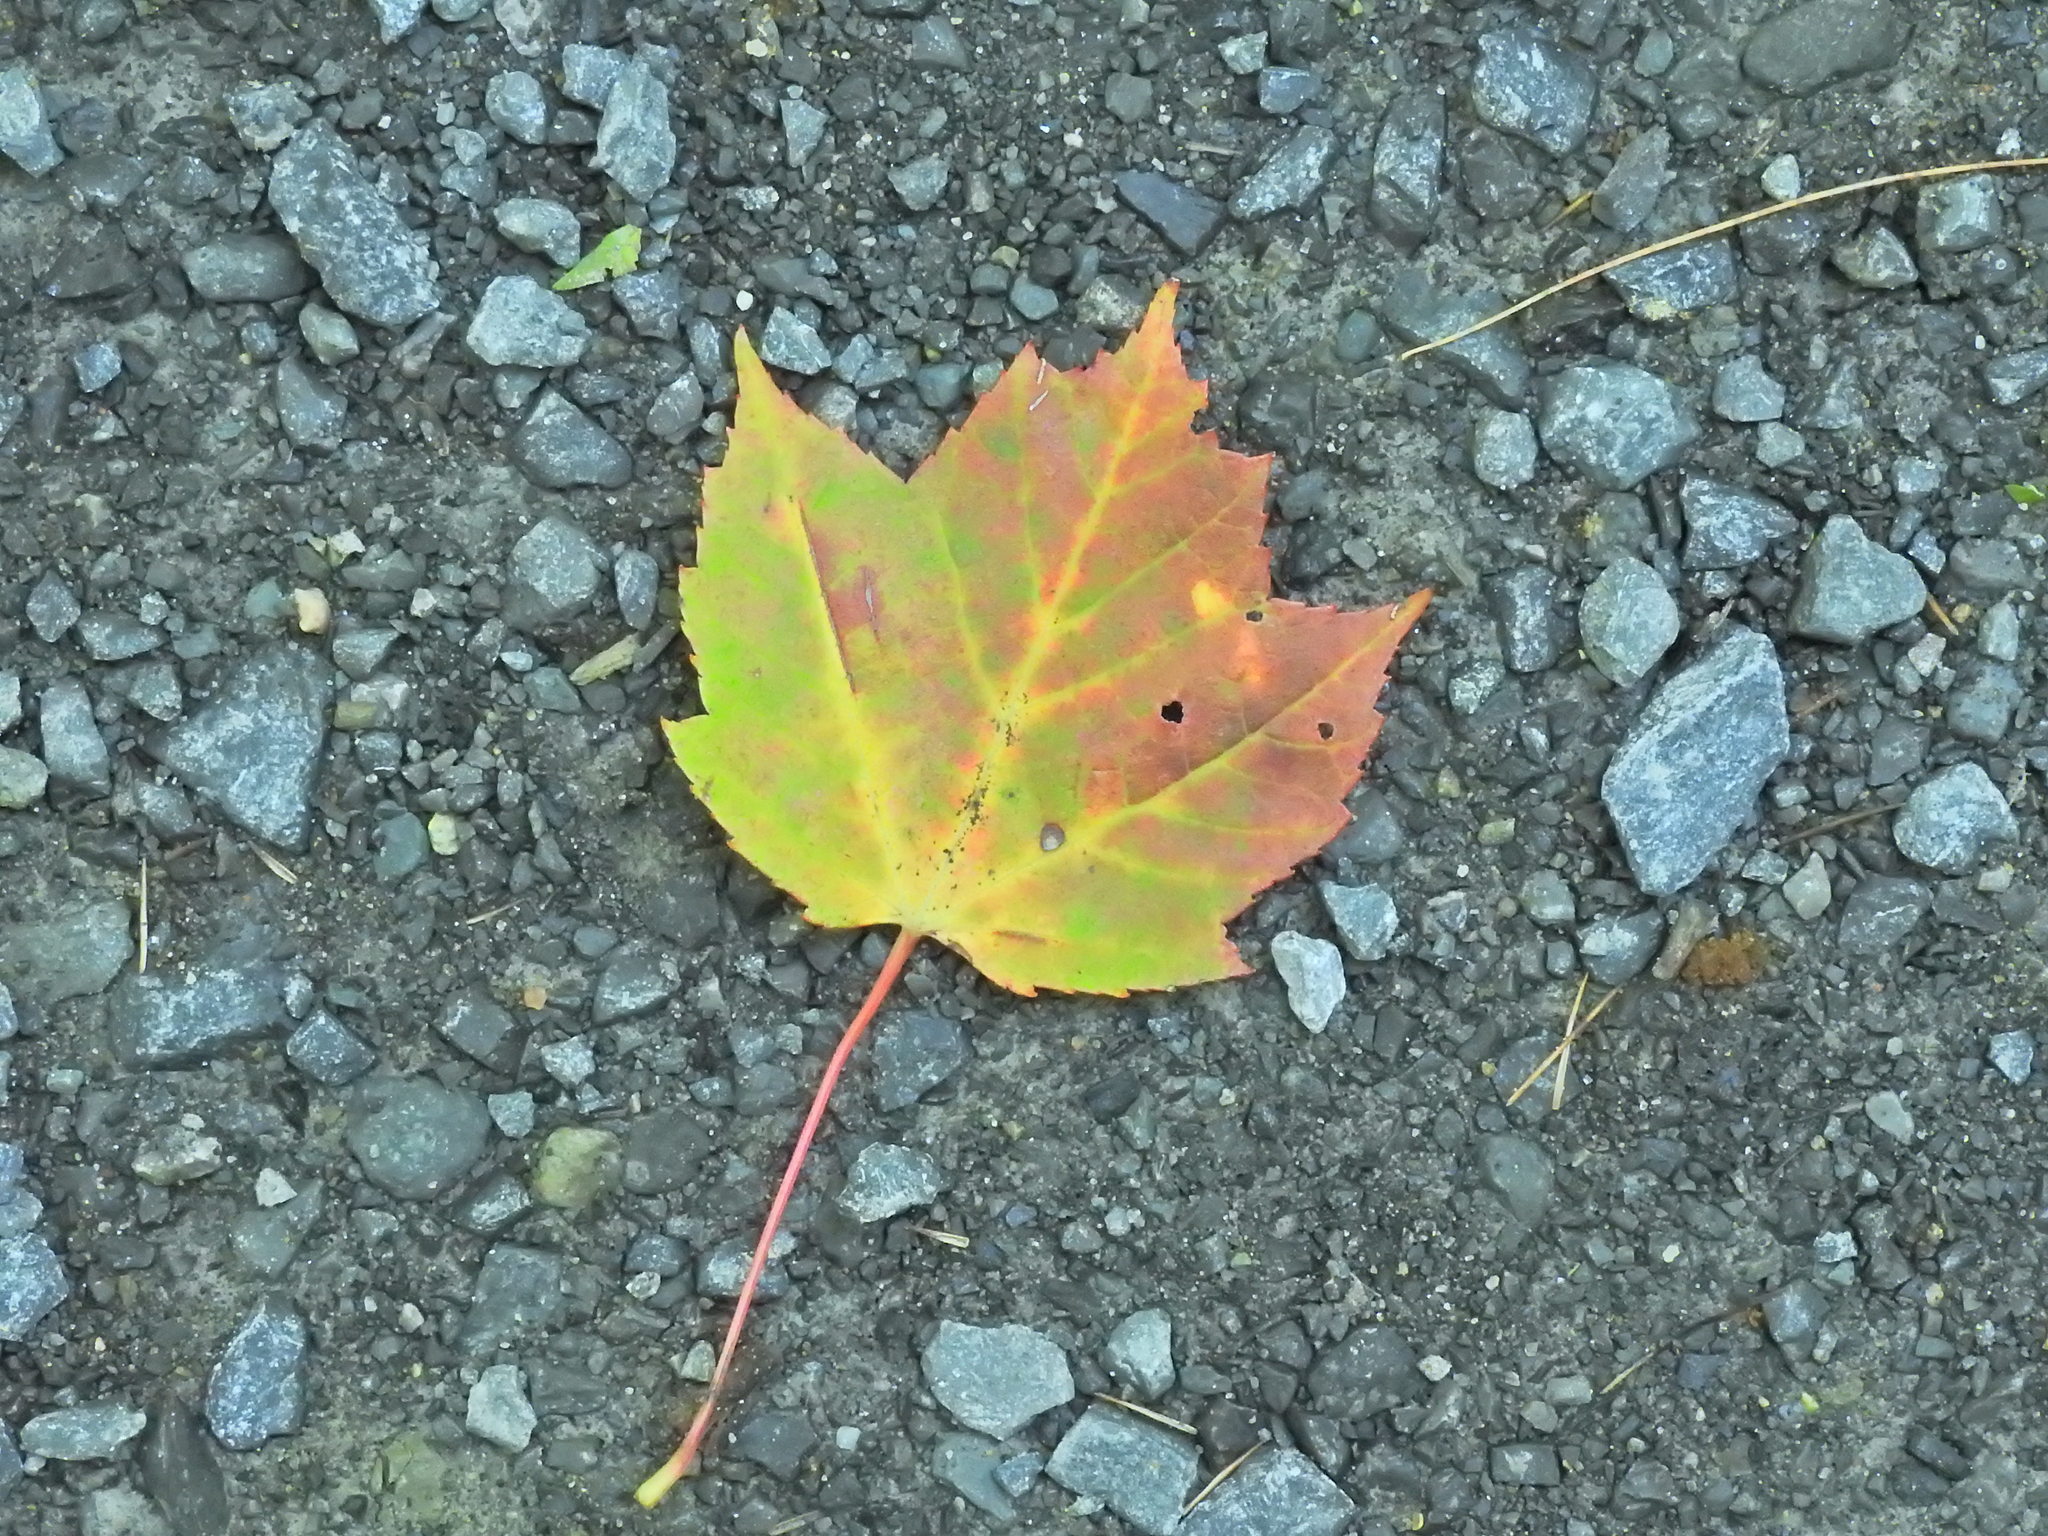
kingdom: Plantae
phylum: Tracheophyta
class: Magnoliopsida
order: Sapindales
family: Sapindaceae
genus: Acer
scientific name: Acer rubrum
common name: Red maple
